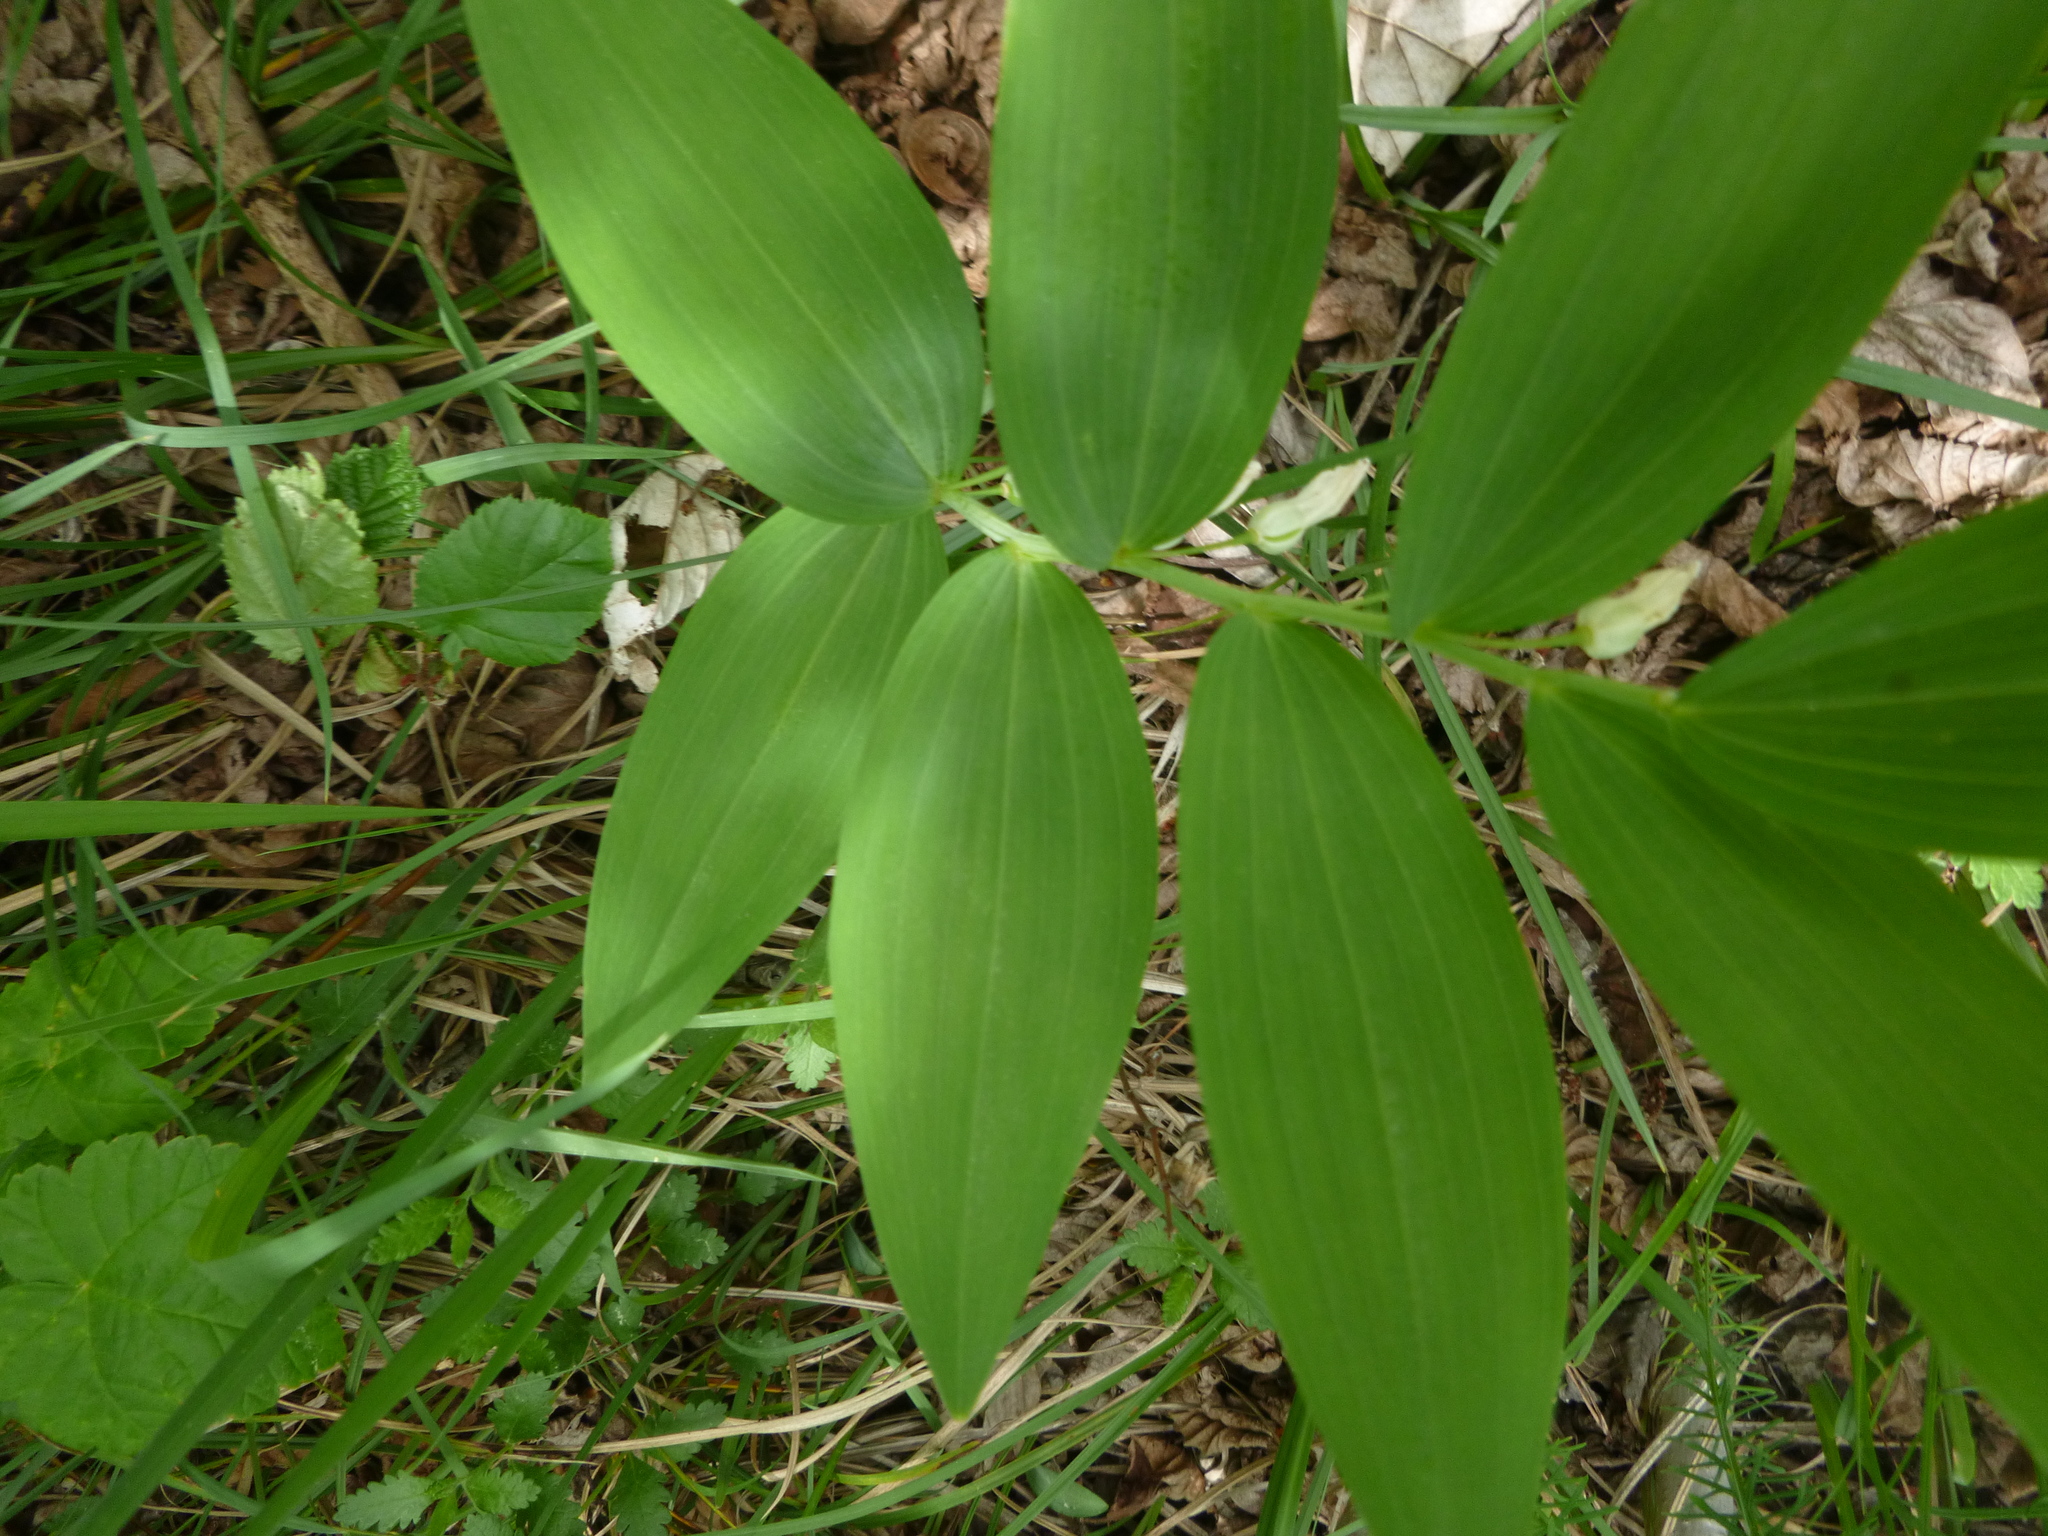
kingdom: Plantae
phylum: Tracheophyta
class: Liliopsida
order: Asparagales
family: Asparagaceae
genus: Polygonatum
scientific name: Polygonatum odoratum
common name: Angular solomon's-seal
